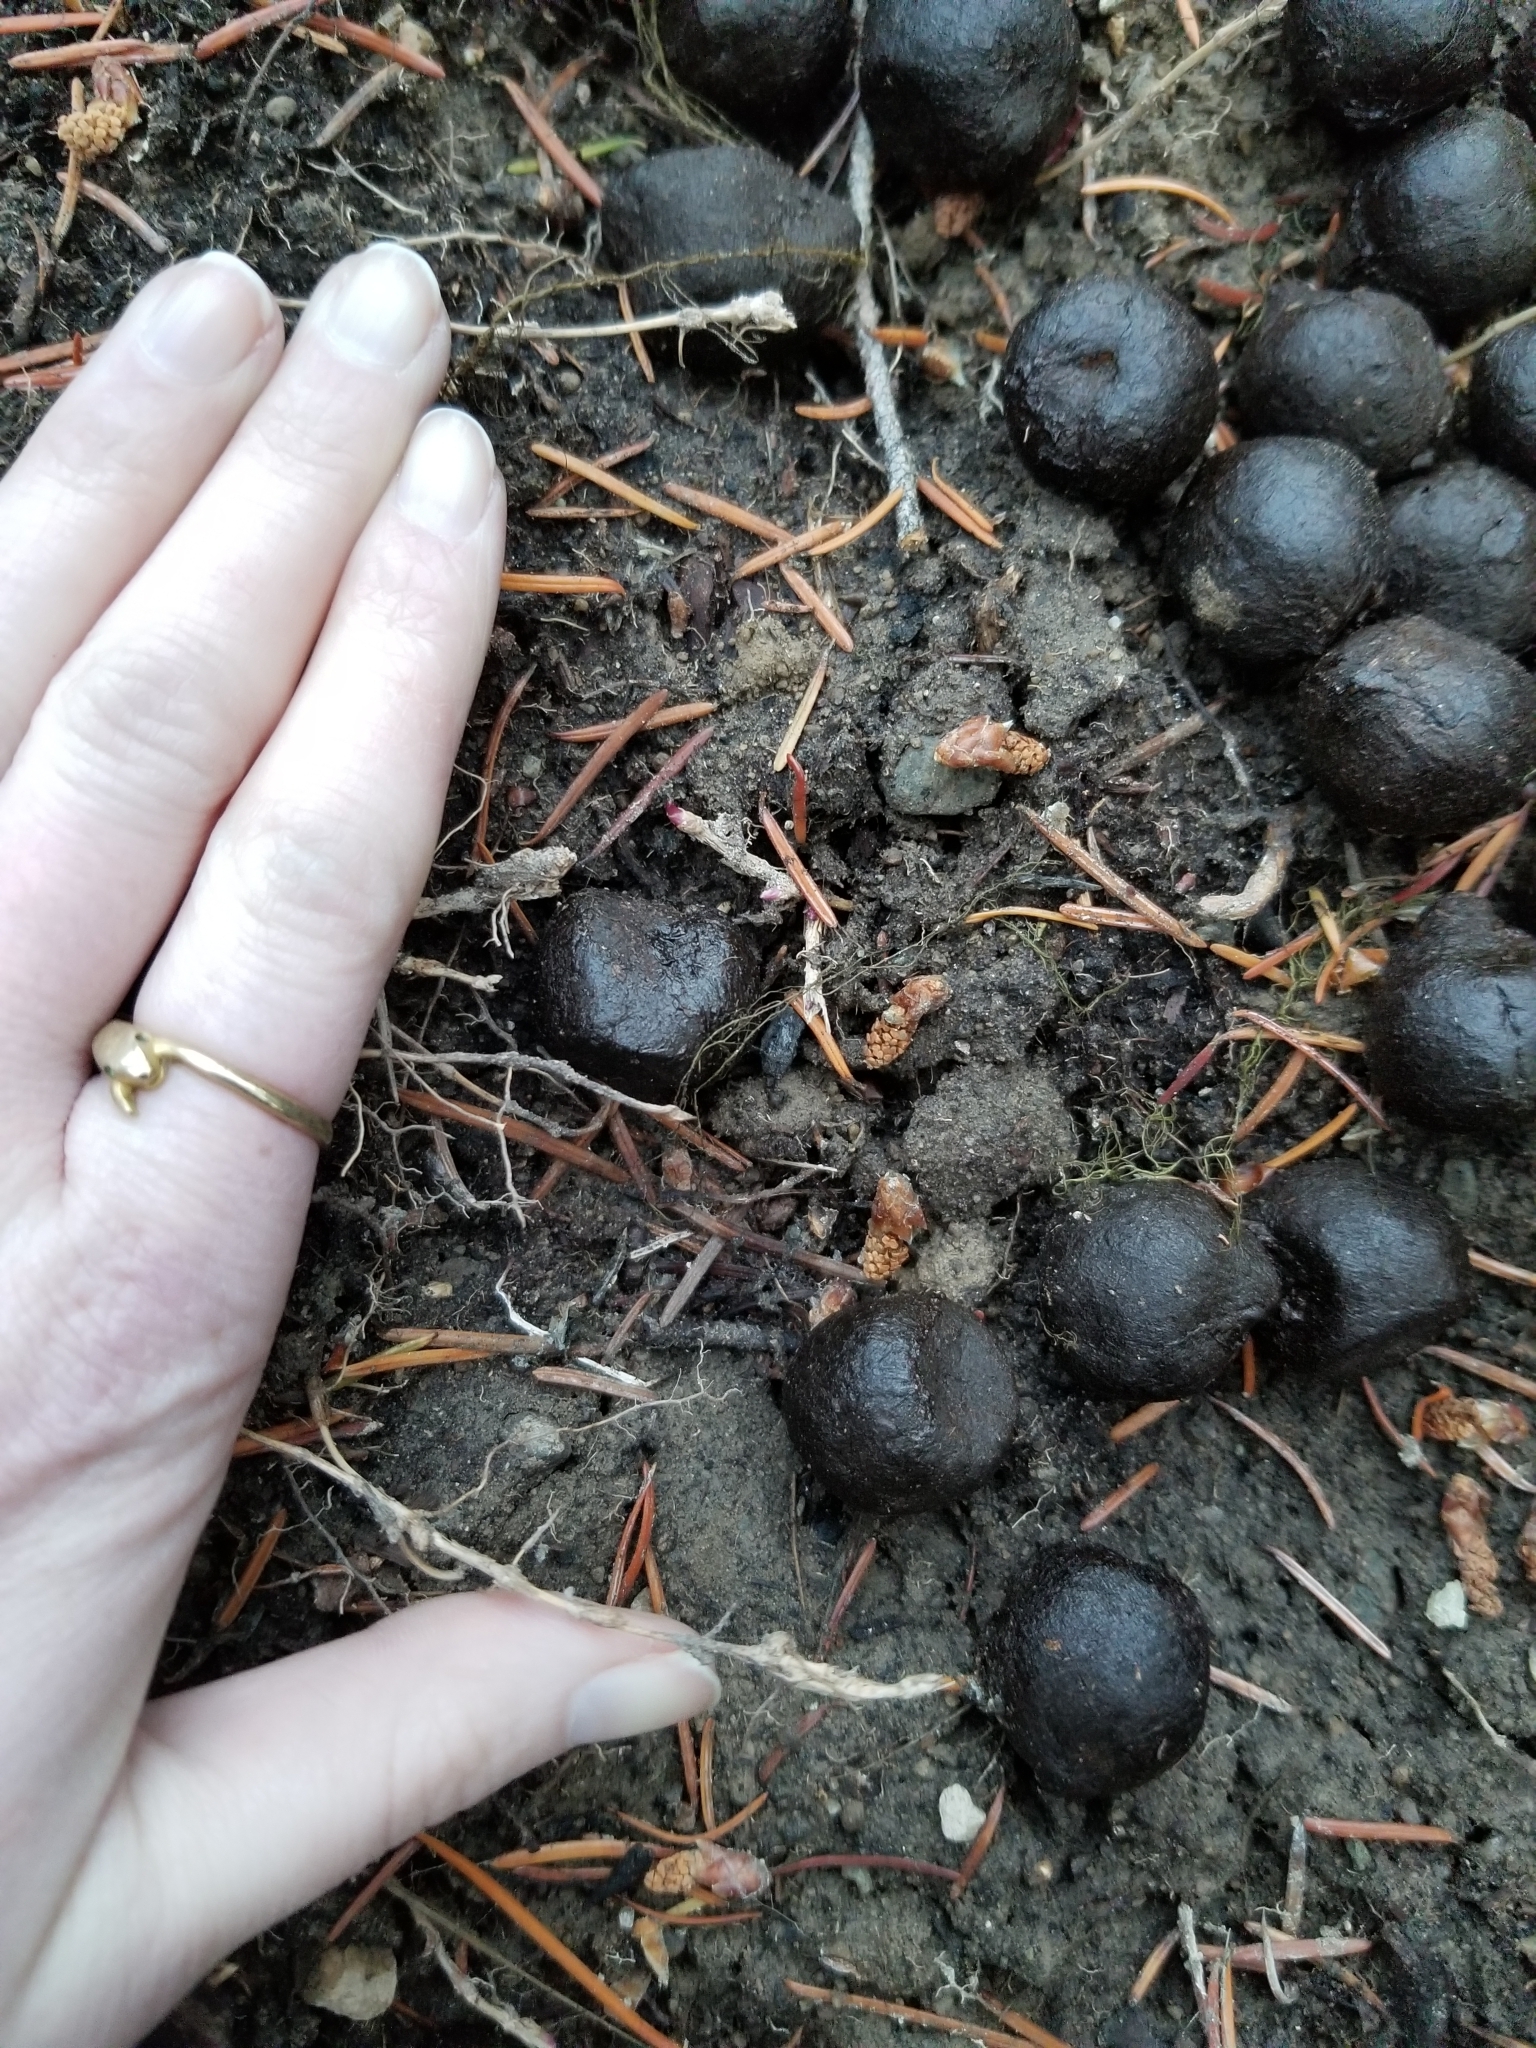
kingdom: Animalia
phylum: Chordata
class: Mammalia
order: Artiodactyla
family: Cervidae
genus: Alces
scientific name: Alces alces
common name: Moose
